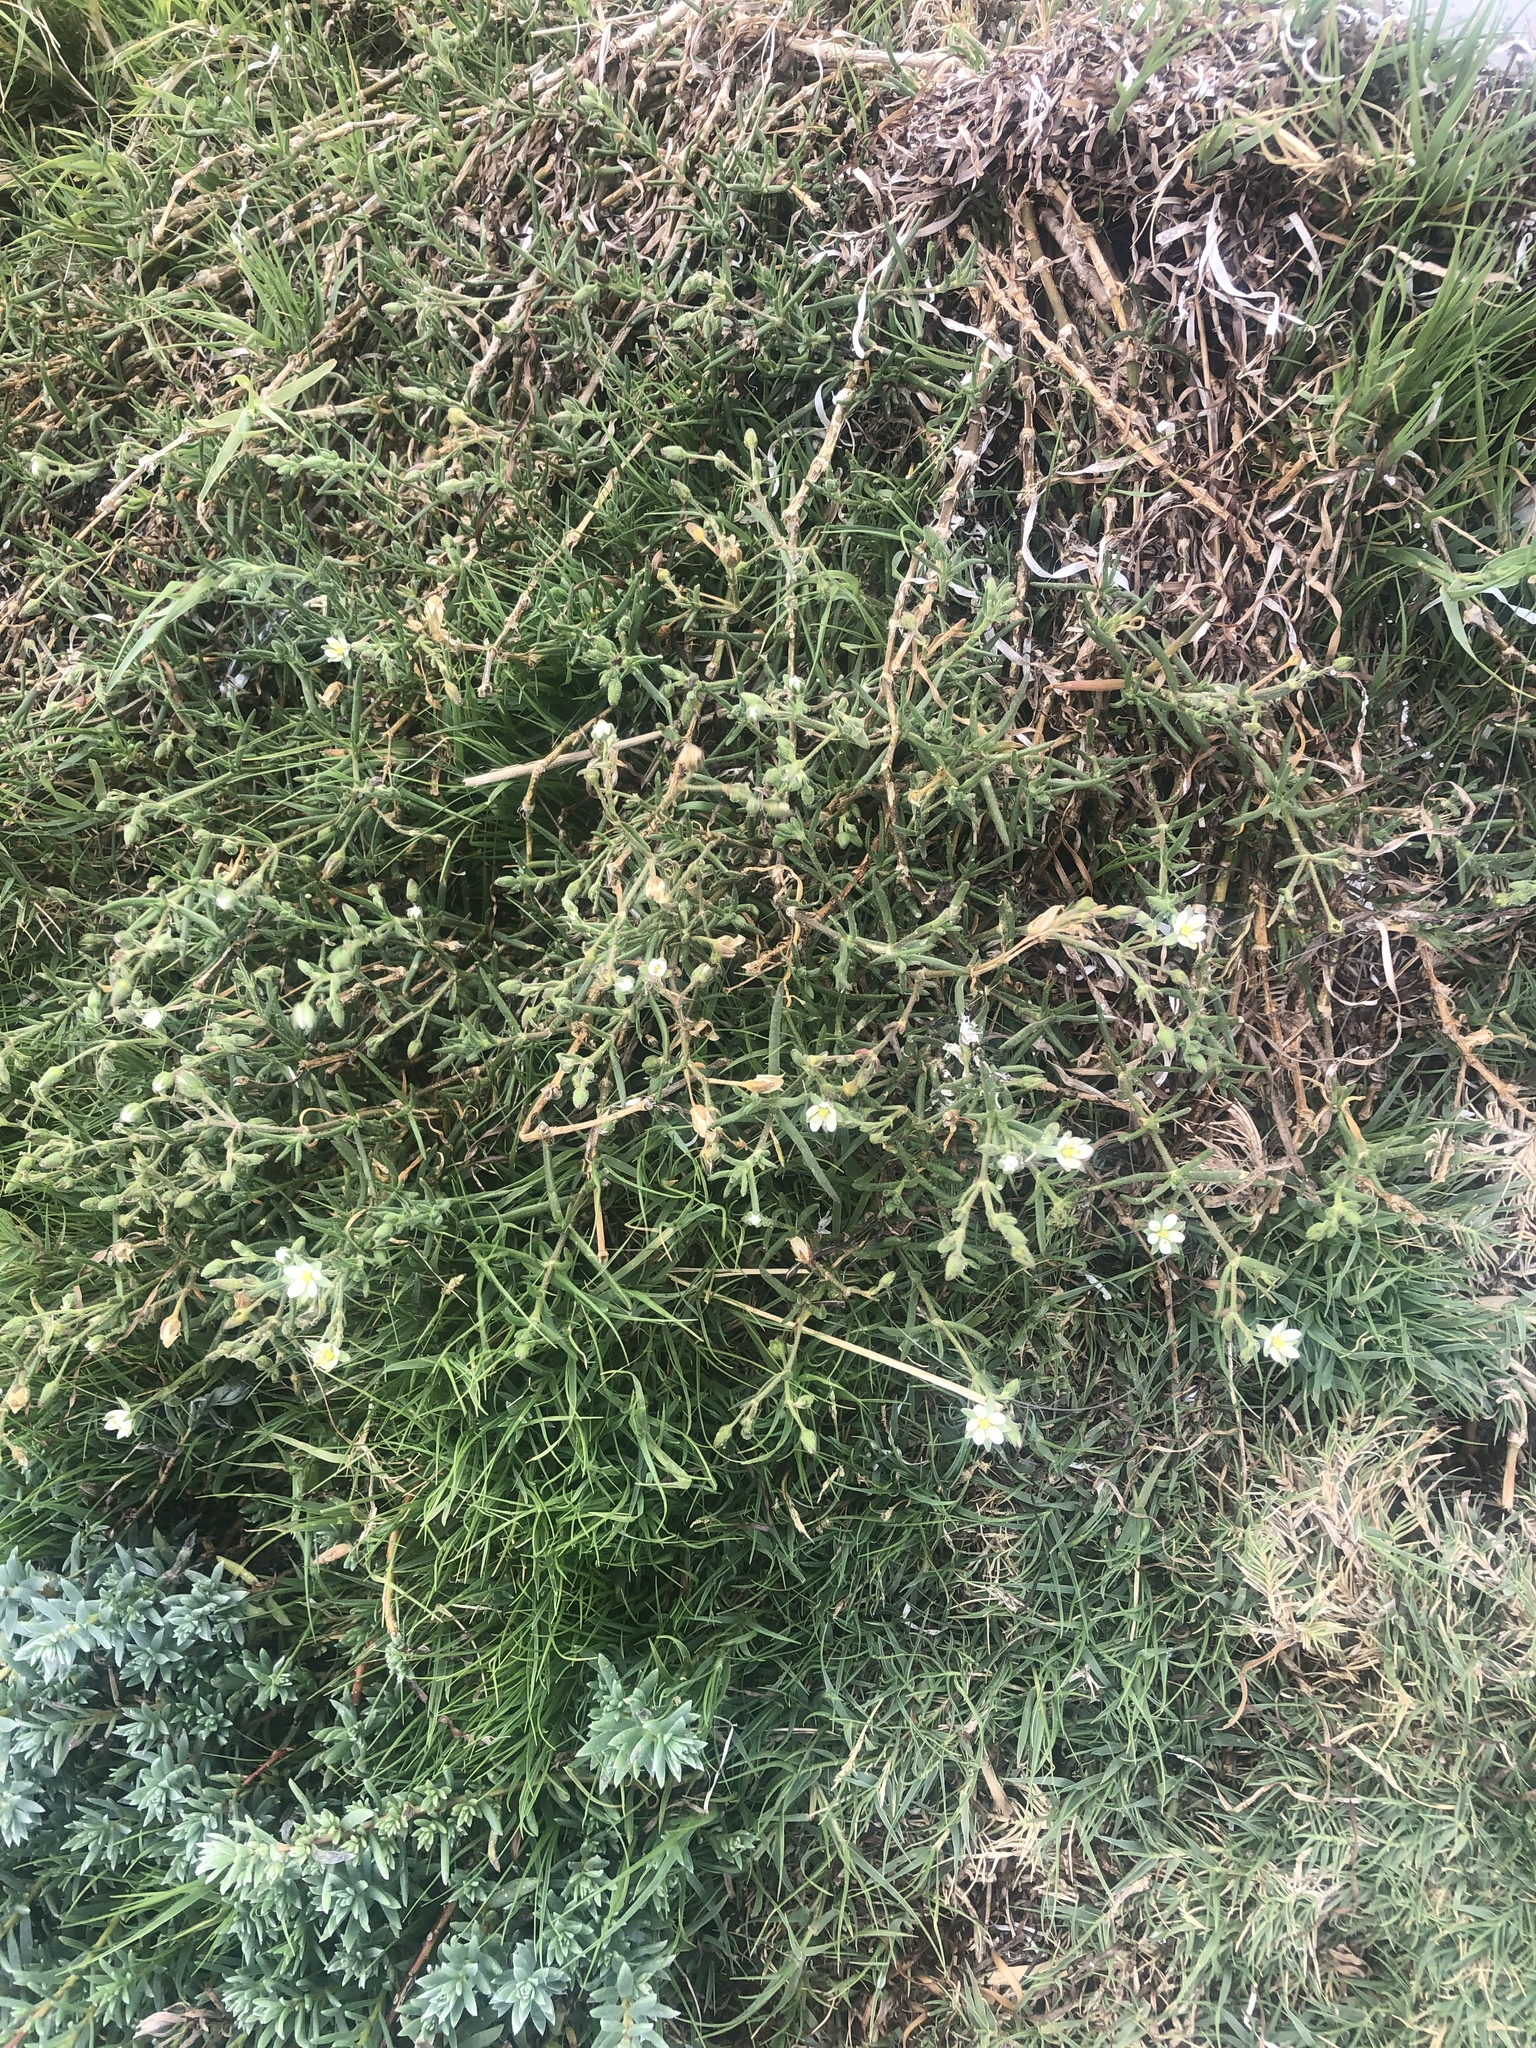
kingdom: Plantae
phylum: Tracheophyta
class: Magnoliopsida
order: Caryophyllales
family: Caryophyllaceae
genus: Spergularia
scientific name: Spergularia media
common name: Greater sea-spurrey
